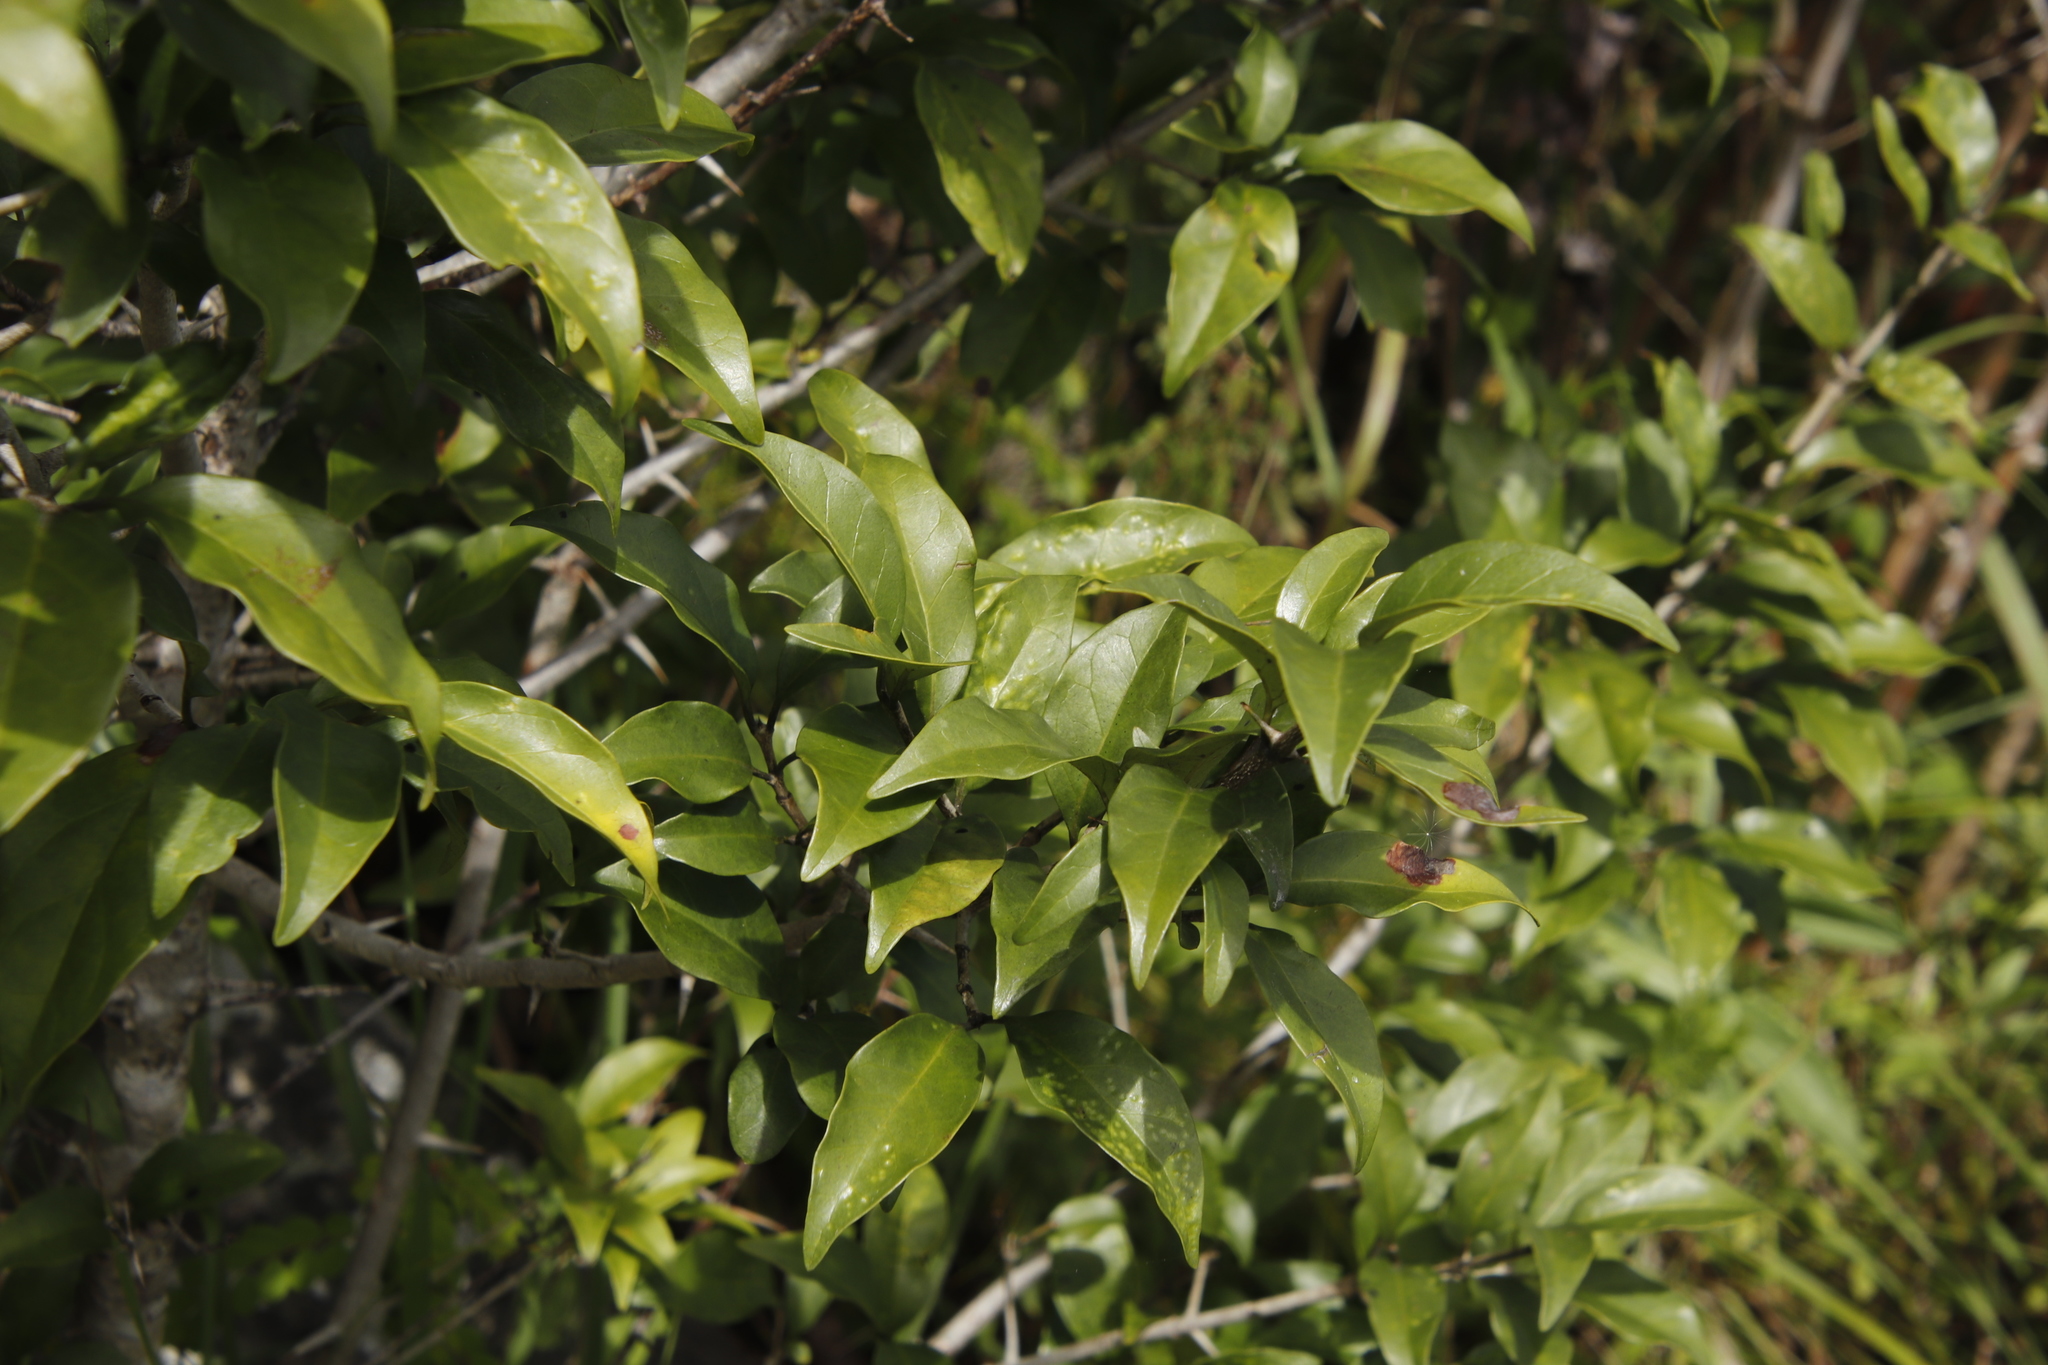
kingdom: Plantae
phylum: Tracheophyta
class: Magnoliopsida
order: Gentianales
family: Rubiaceae
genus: Canthium
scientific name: Canthium inerme
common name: Unarmed turkey-berry
